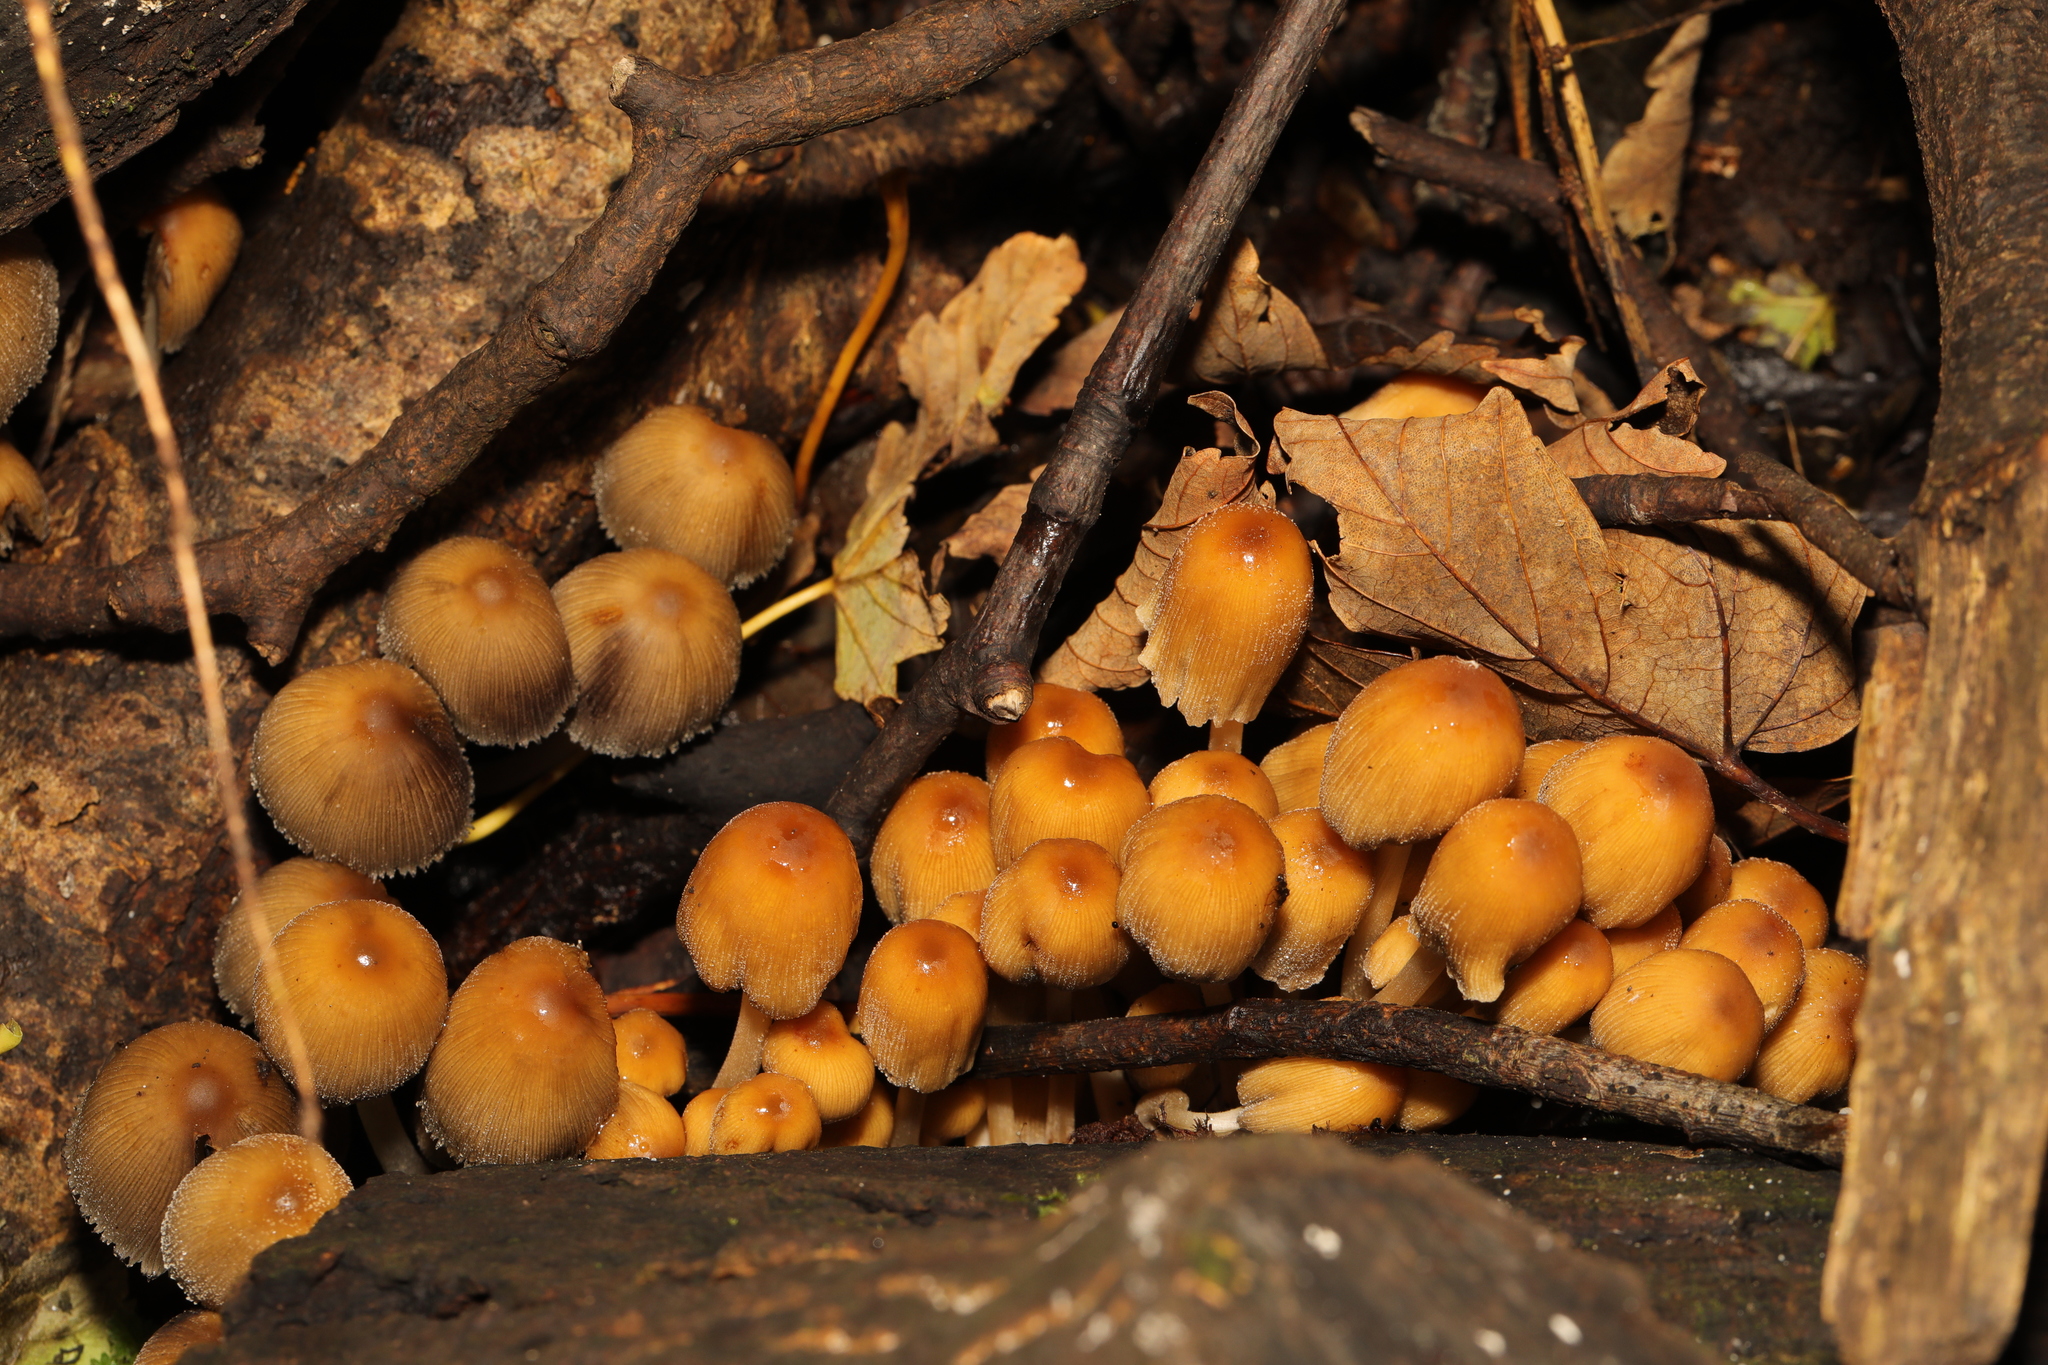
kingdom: Fungi
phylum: Basidiomycota
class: Agaricomycetes
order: Agaricales
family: Psathyrellaceae
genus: Coprinellus
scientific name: Coprinellus micaceus
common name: Glistening ink-cap
